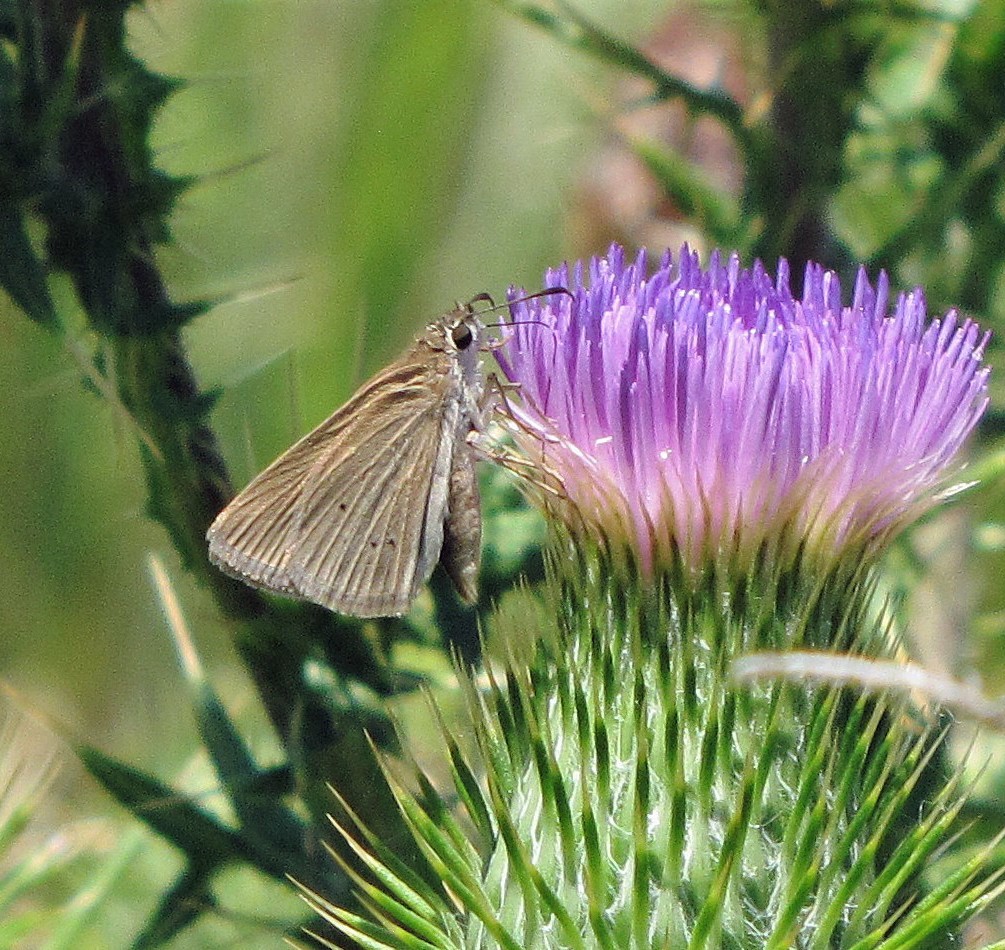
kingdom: Animalia
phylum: Arthropoda
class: Insecta
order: Lepidoptera
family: Hesperiidae
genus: Panca
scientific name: Panca subpunctuli
